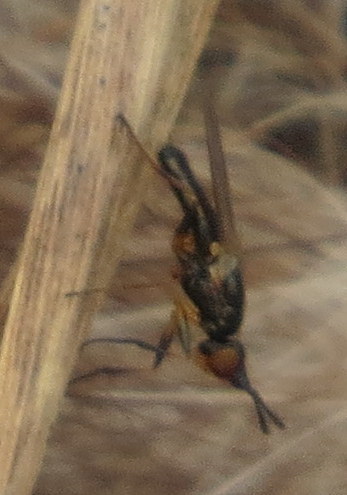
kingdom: Animalia
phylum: Arthropoda
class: Insecta
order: Diptera
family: Piophilidae
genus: Prochyliza
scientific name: Prochyliza xanthostoma
